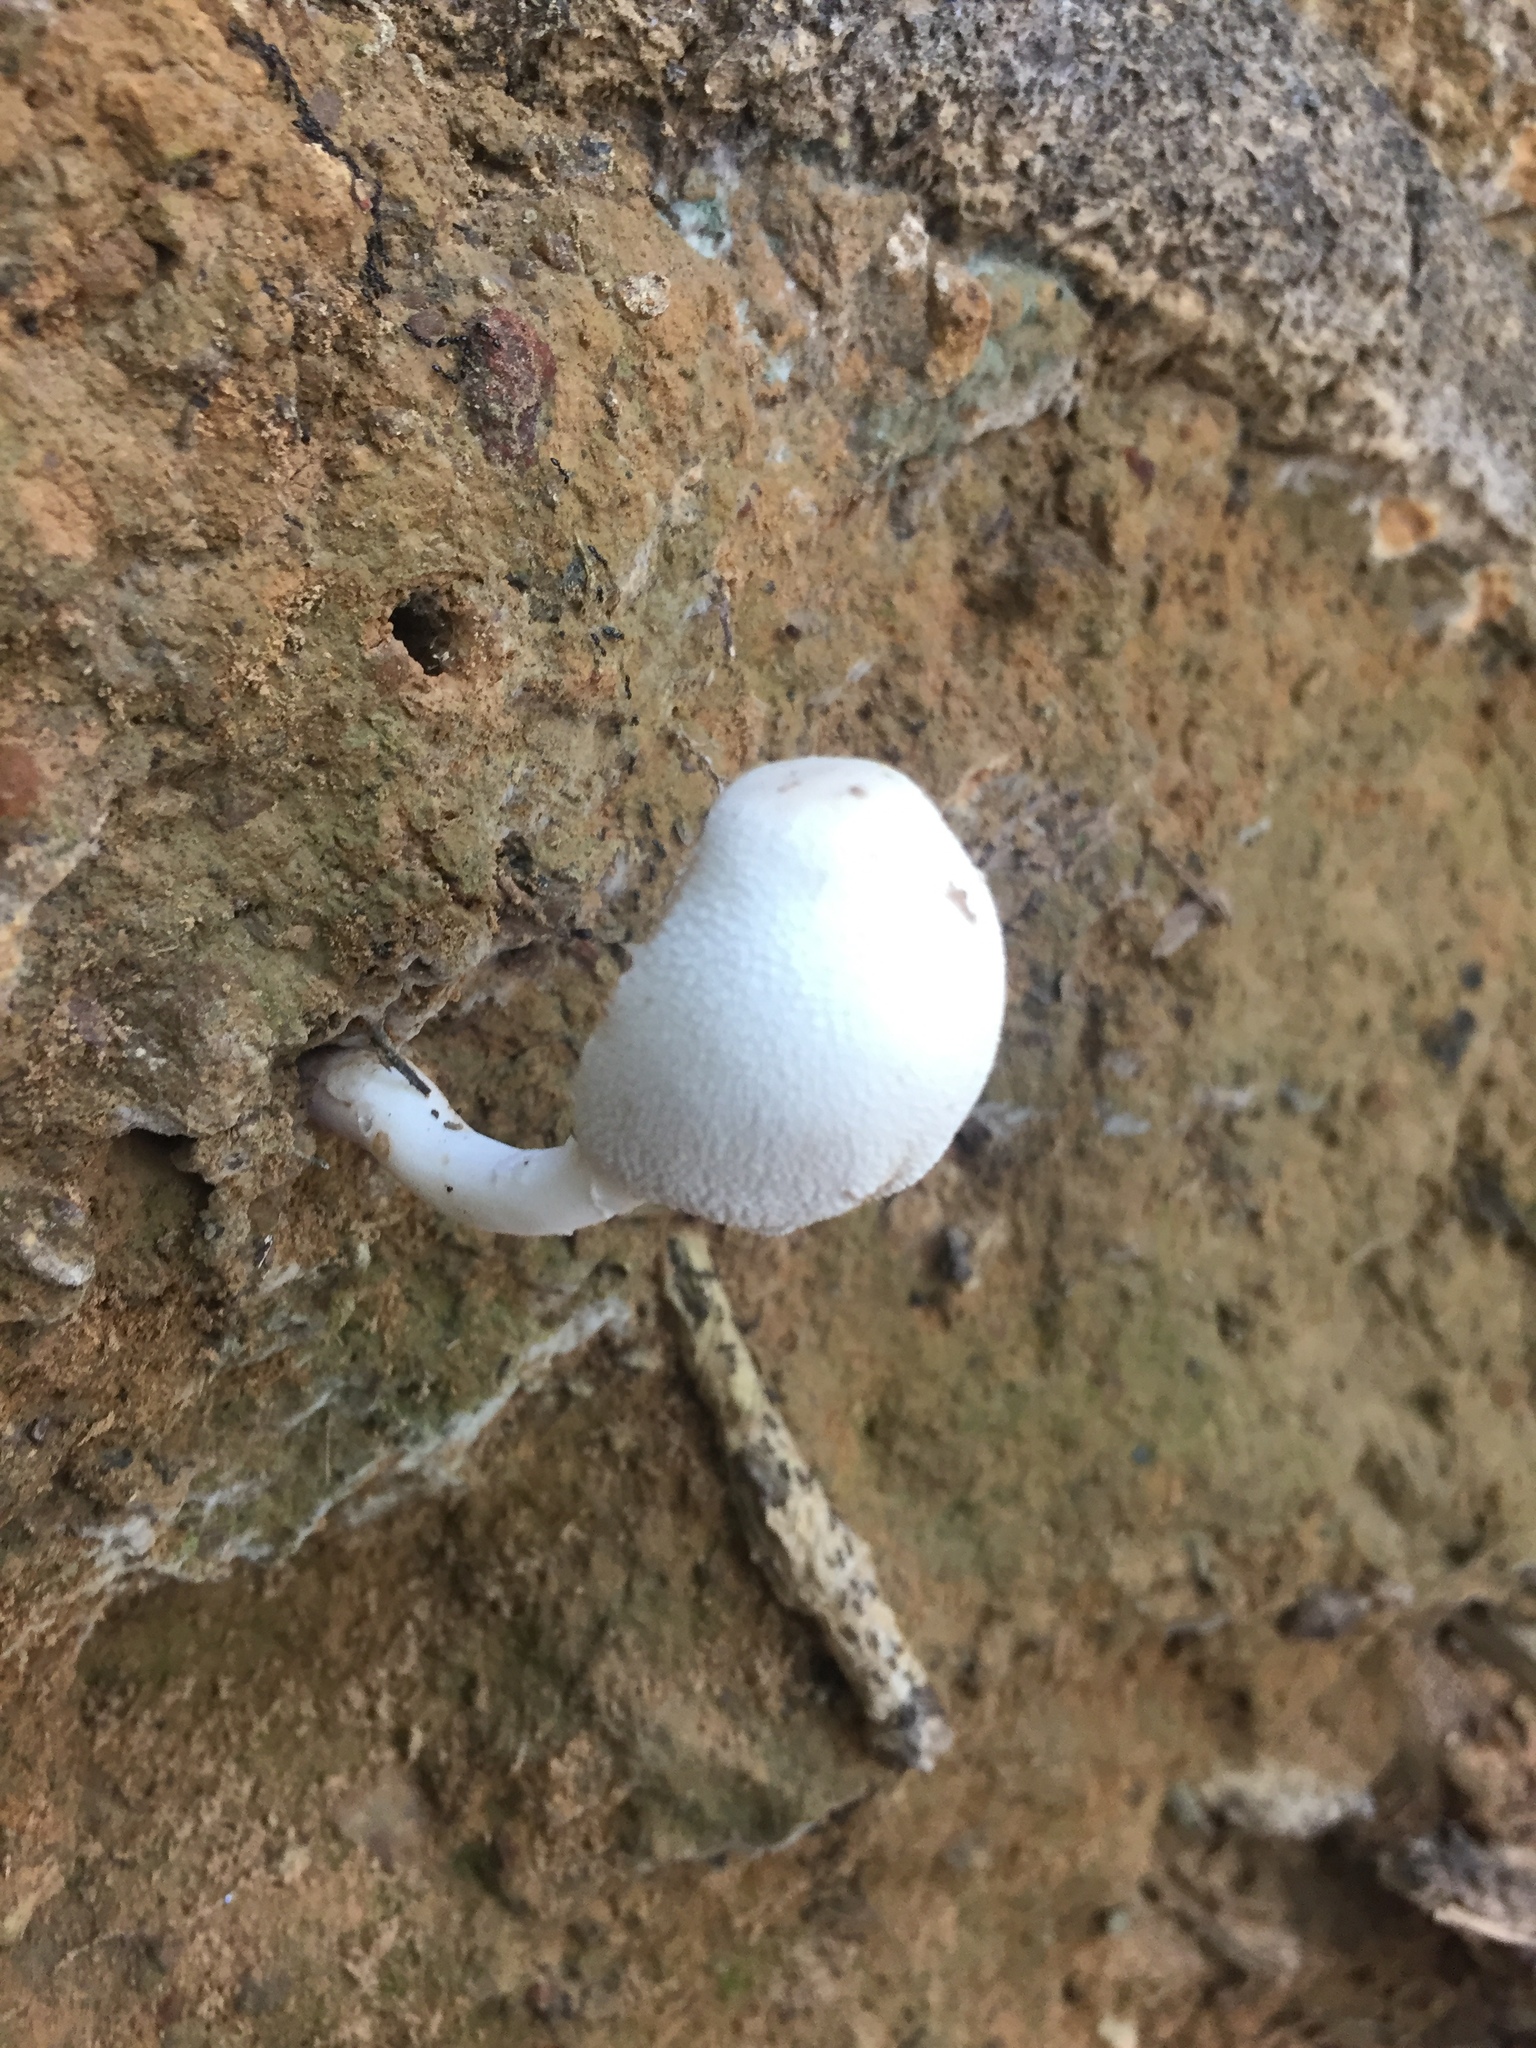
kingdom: Fungi
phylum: Basidiomycota
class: Agaricomycetes
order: Agaricales
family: Agaricaceae
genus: Leucocoprinus
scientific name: Leucocoprinus cepistipes
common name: Onion-stalk parasol
